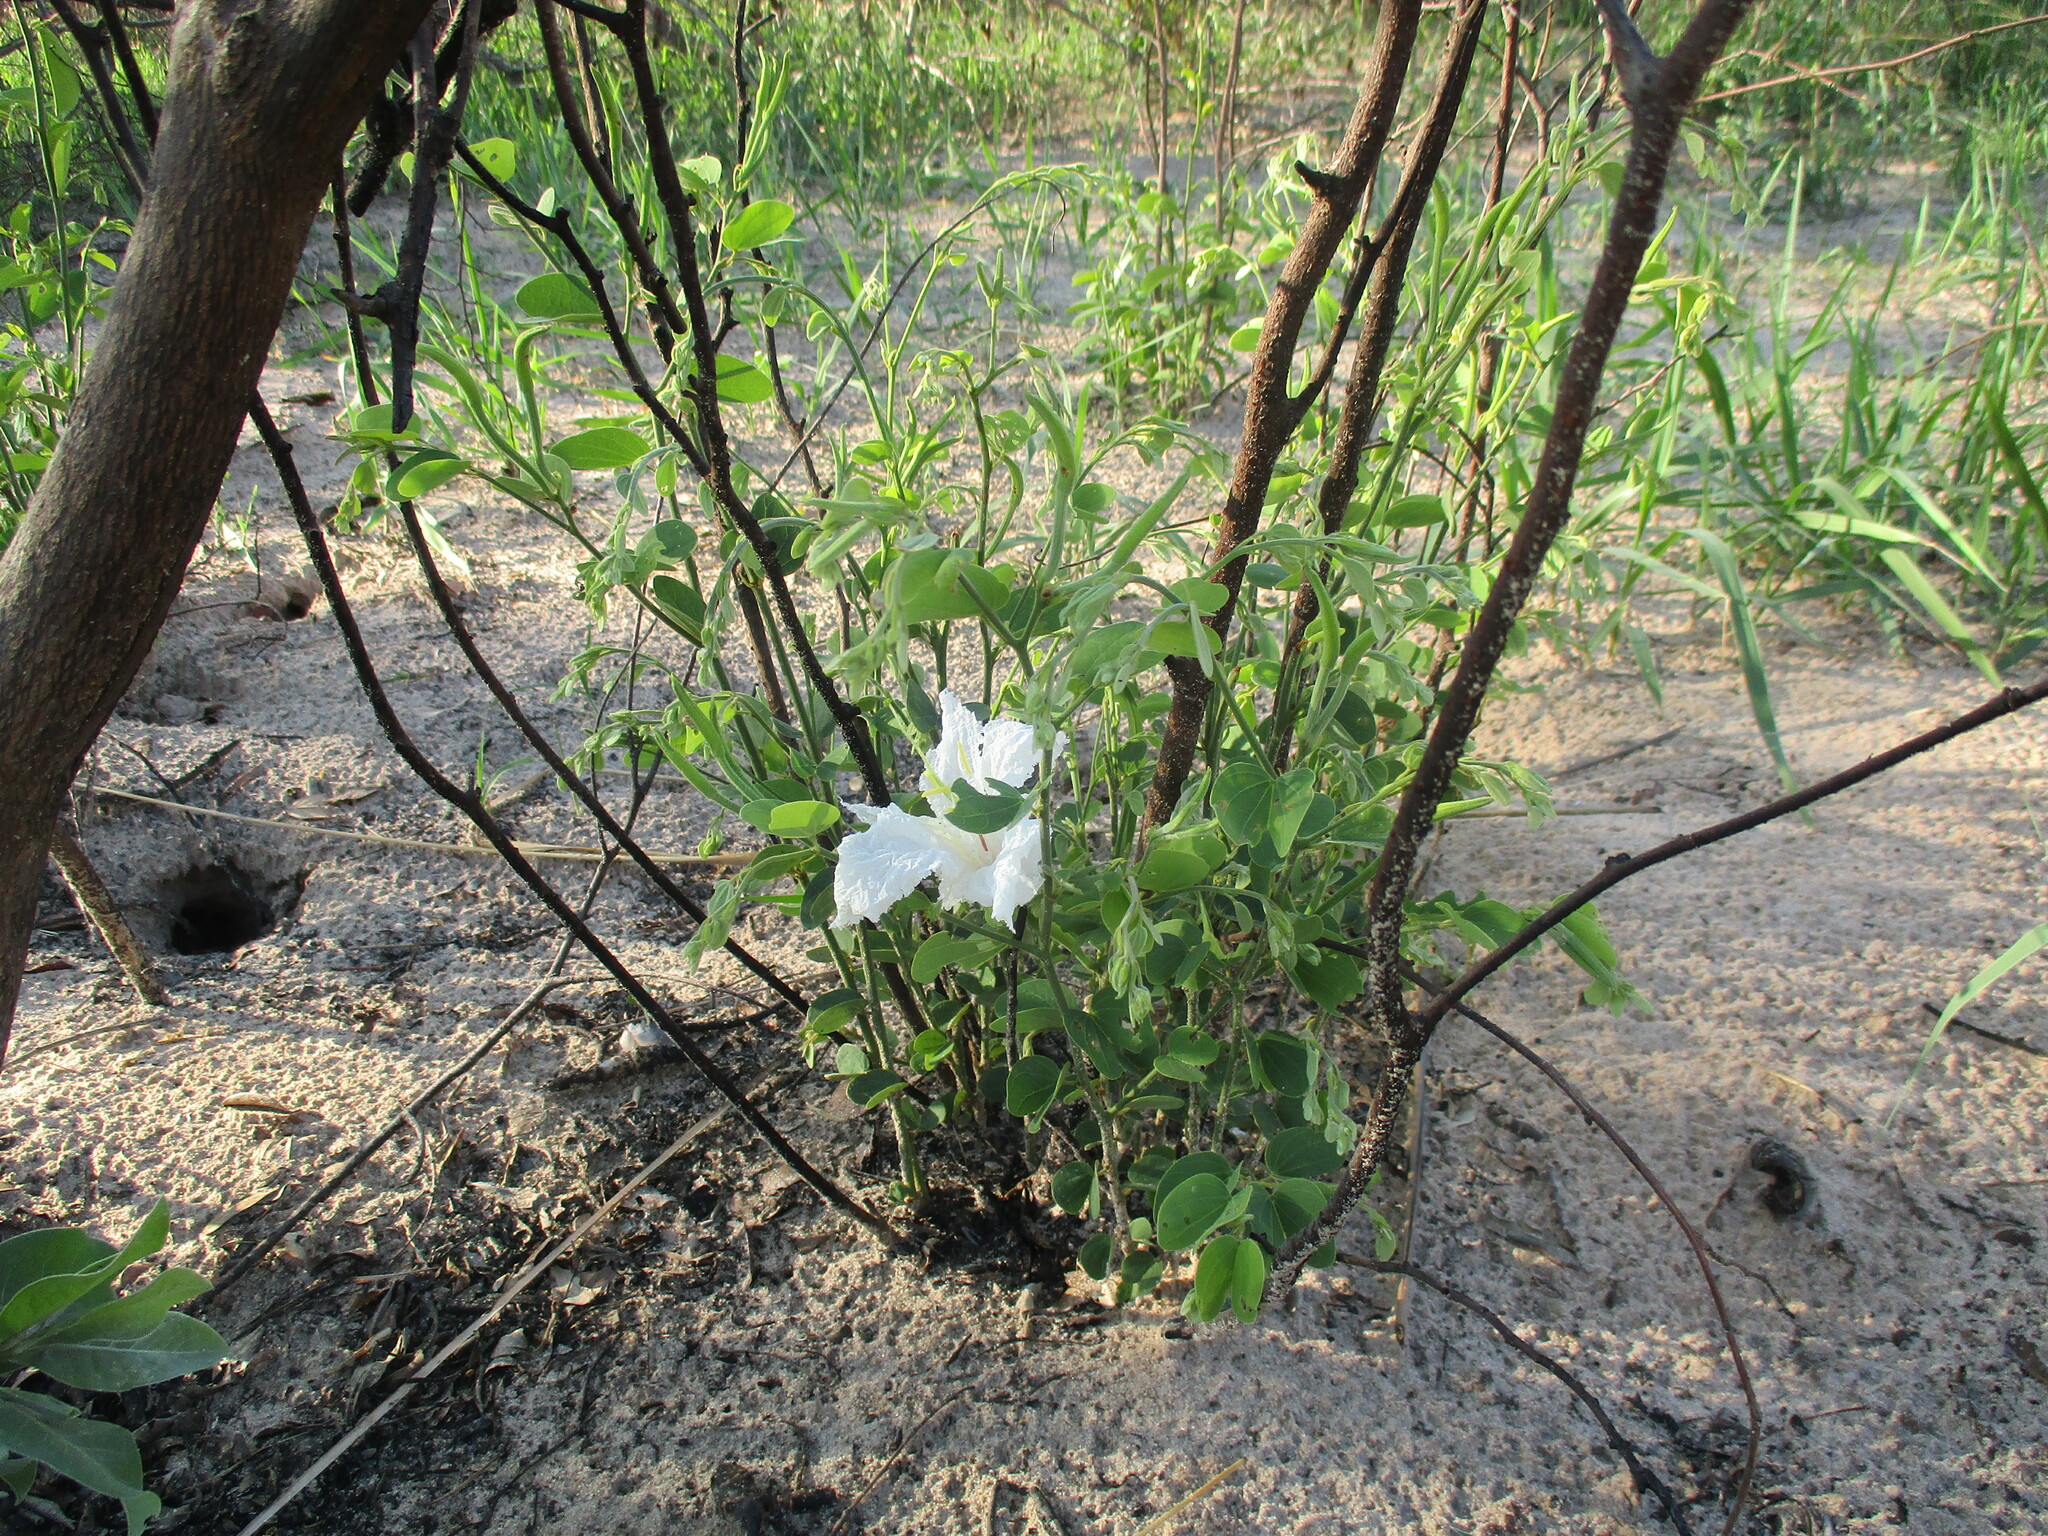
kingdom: Plantae
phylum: Tracheophyta
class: Magnoliopsida
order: Fabales
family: Fabaceae
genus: Bauhinia
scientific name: Bauhinia macrantha
